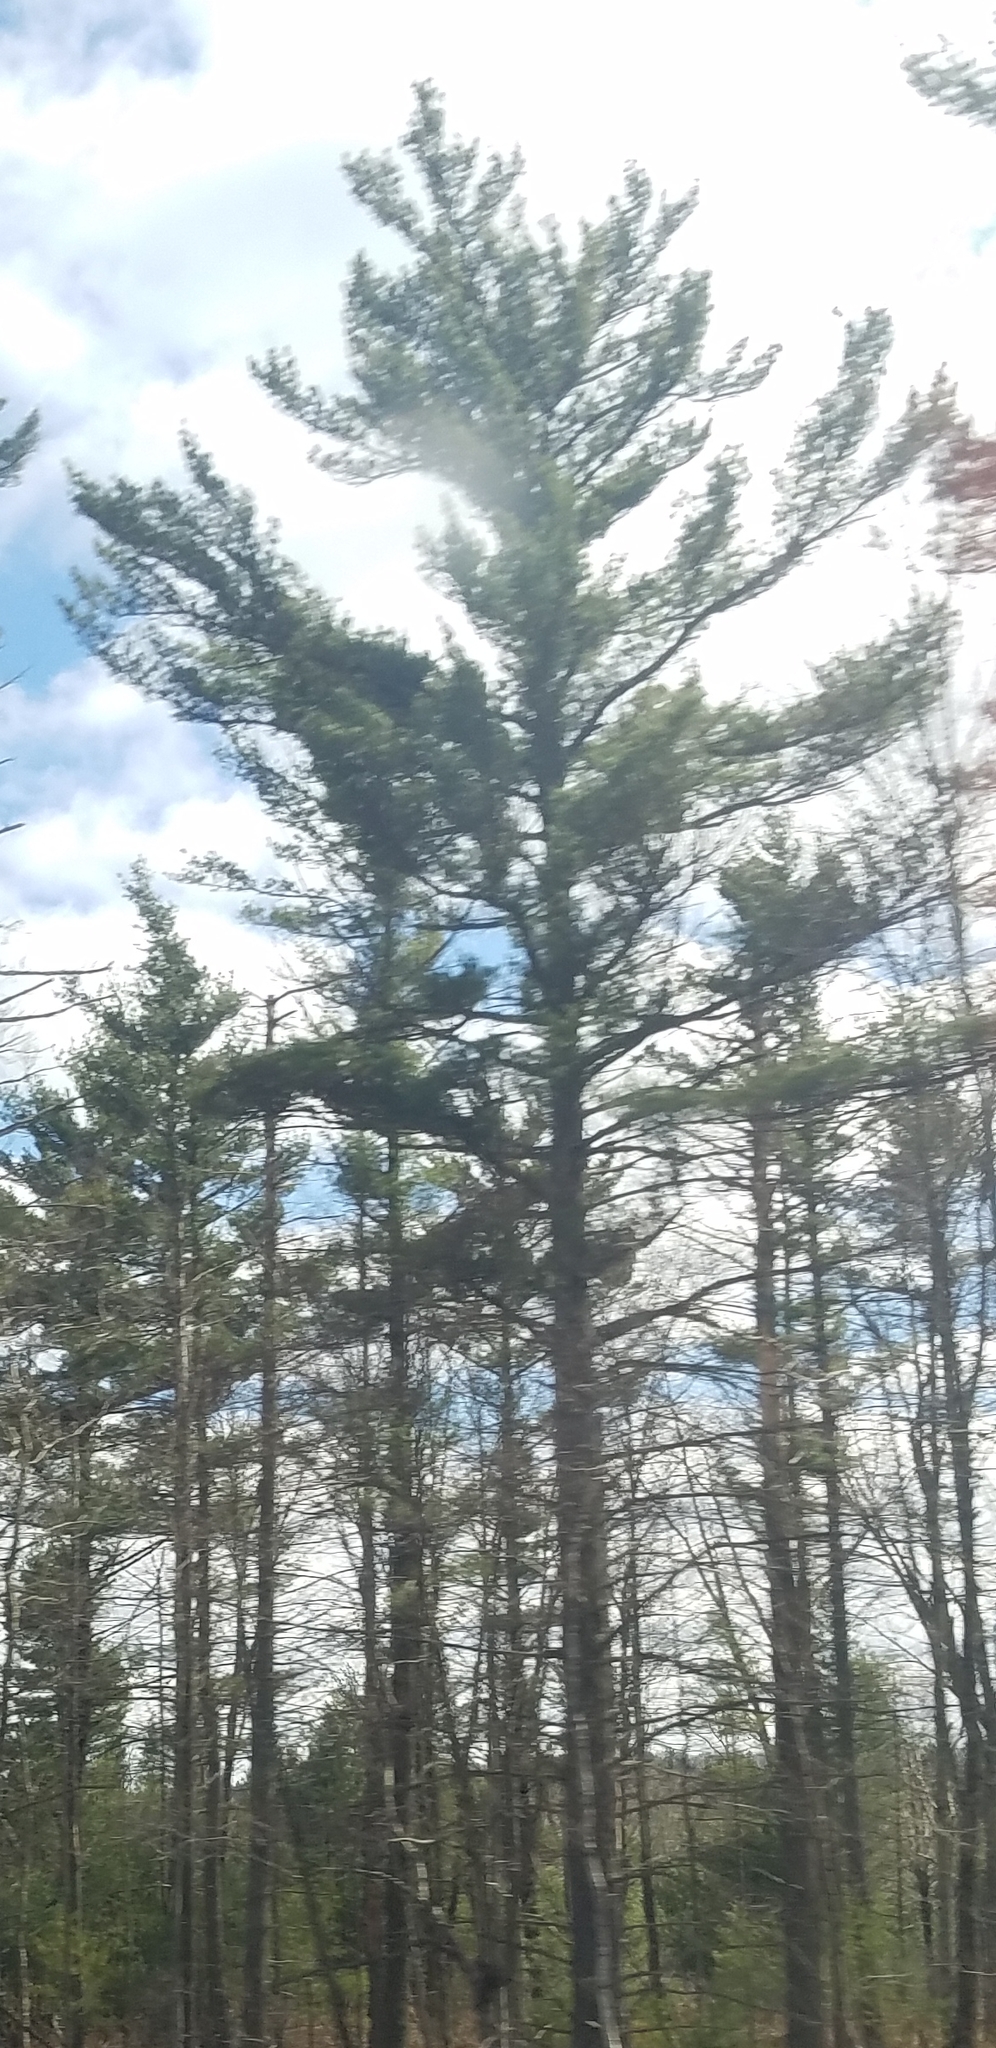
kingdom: Plantae
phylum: Tracheophyta
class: Pinopsida
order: Pinales
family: Pinaceae
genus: Pinus
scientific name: Pinus strobus
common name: Weymouth pine
